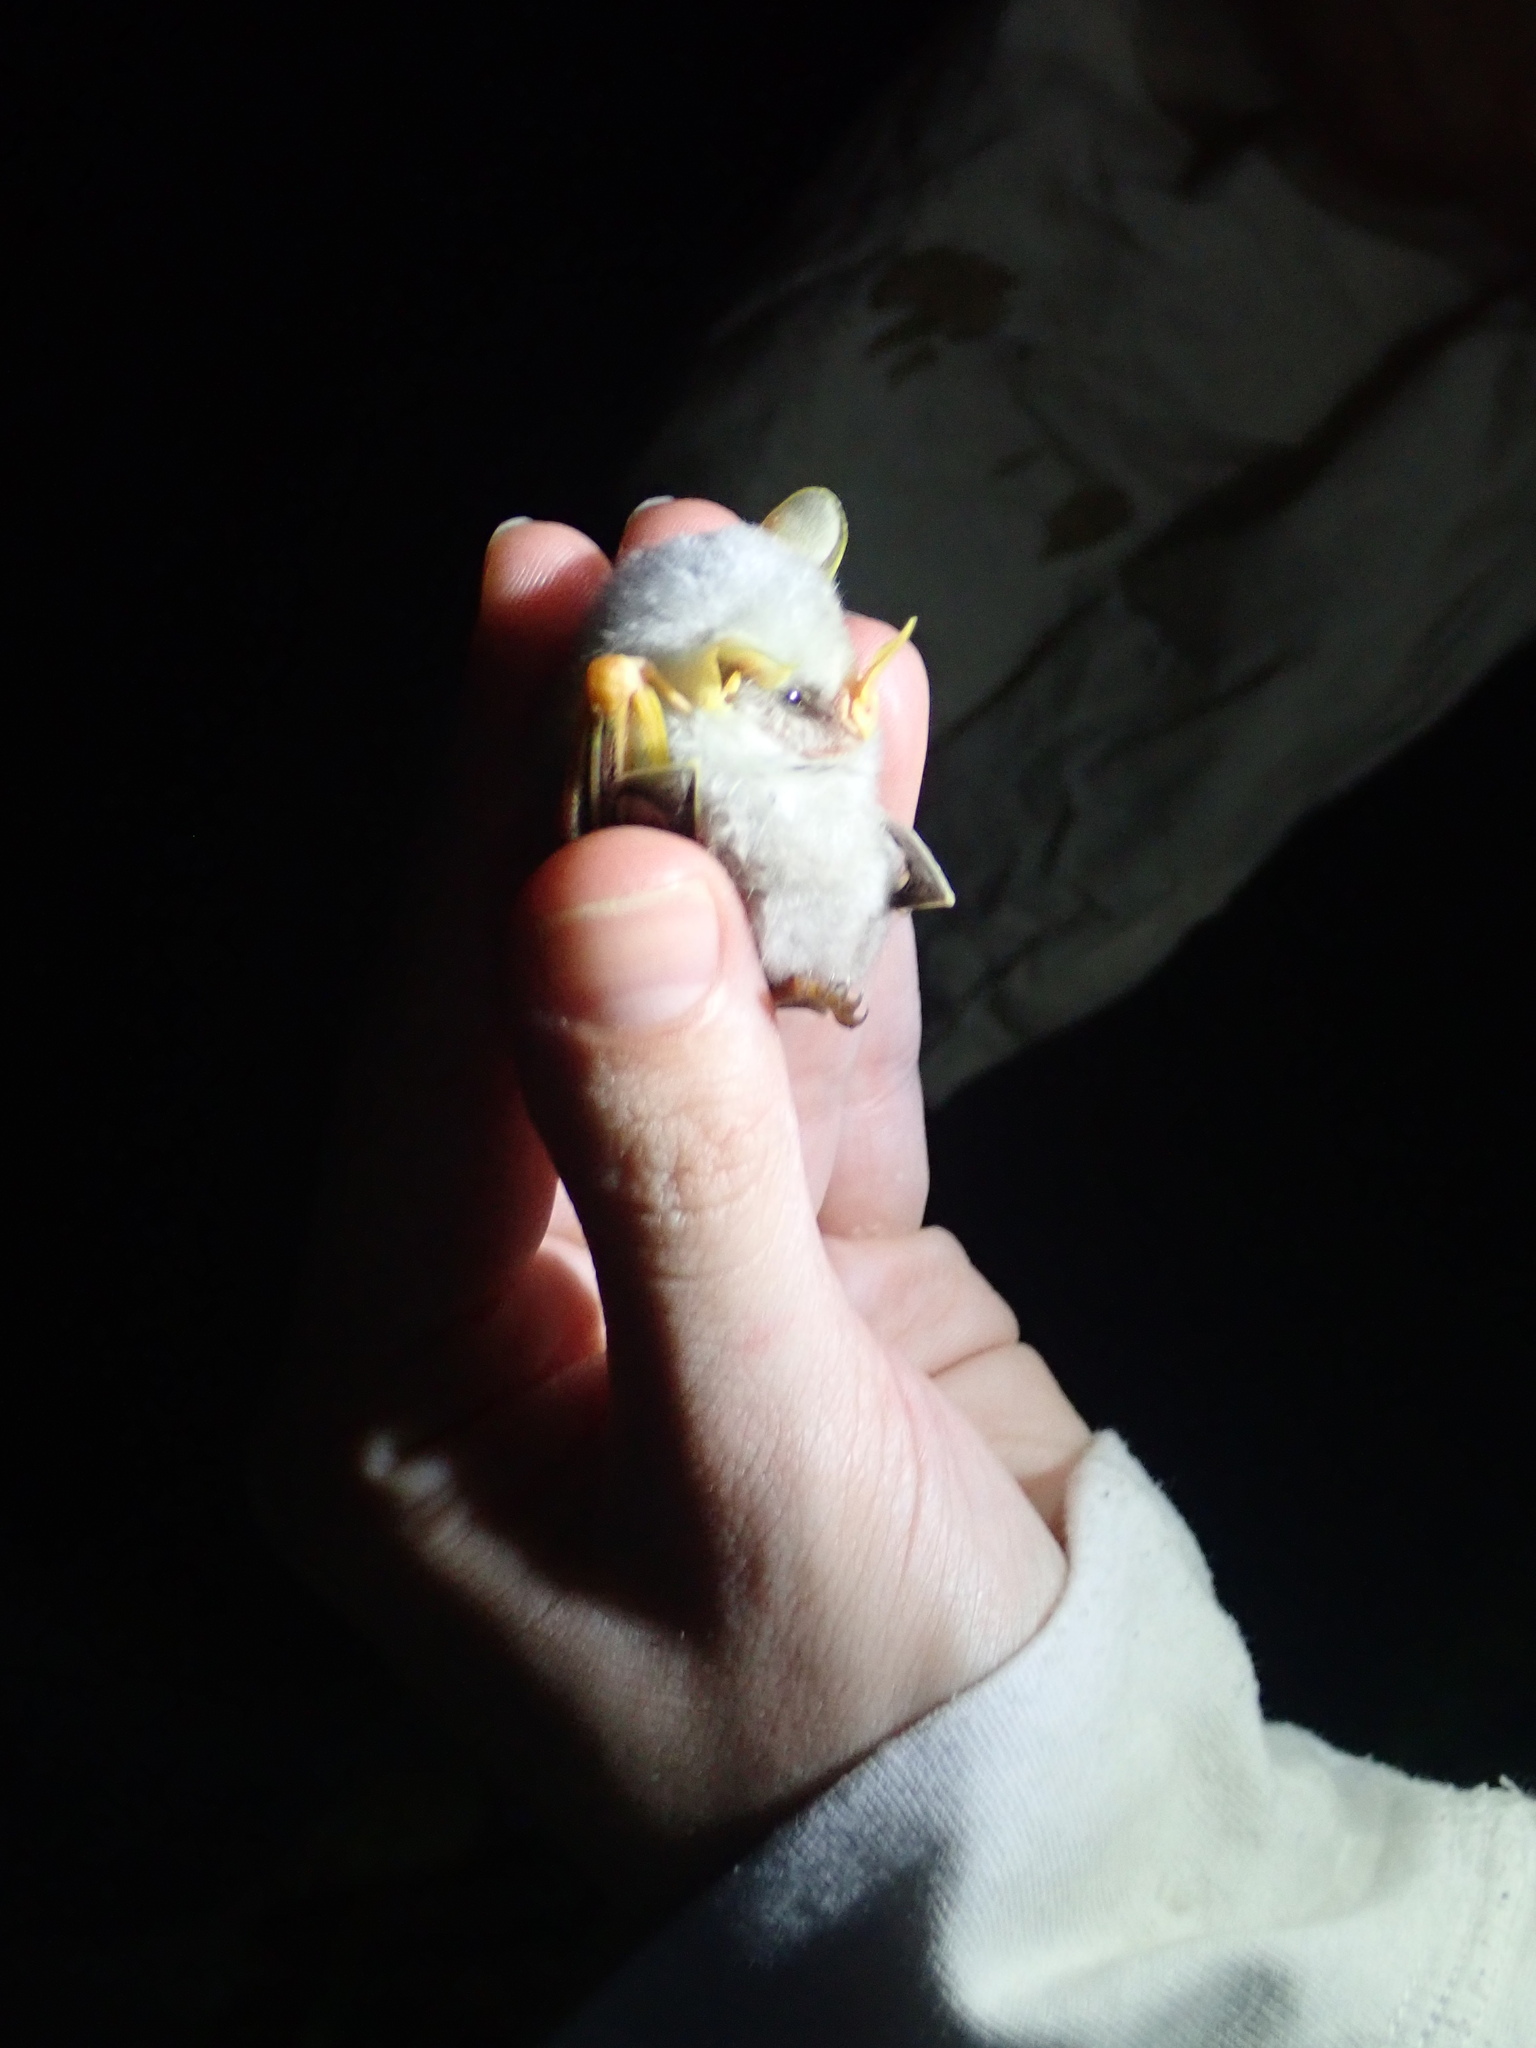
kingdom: Animalia
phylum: Chordata
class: Mammalia
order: Chiroptera
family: Phyllostomidae
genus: Ectophylla
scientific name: Ectophylla alba
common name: Honduran white bat
